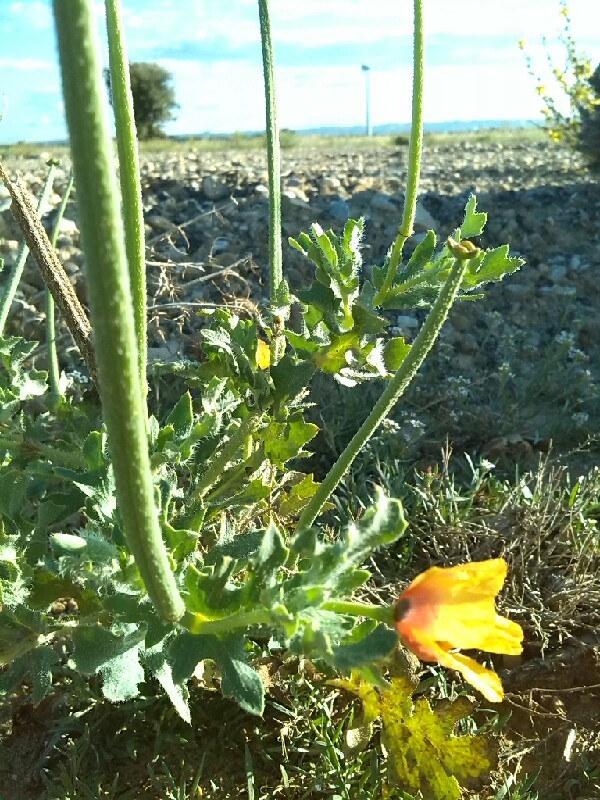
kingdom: Plantae
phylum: Tracheophyta
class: Magnoliopsida
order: Ranunculales
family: Papaveraceae
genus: Glaucium
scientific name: Glaucium corniculatum
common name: Red horned-poppy
